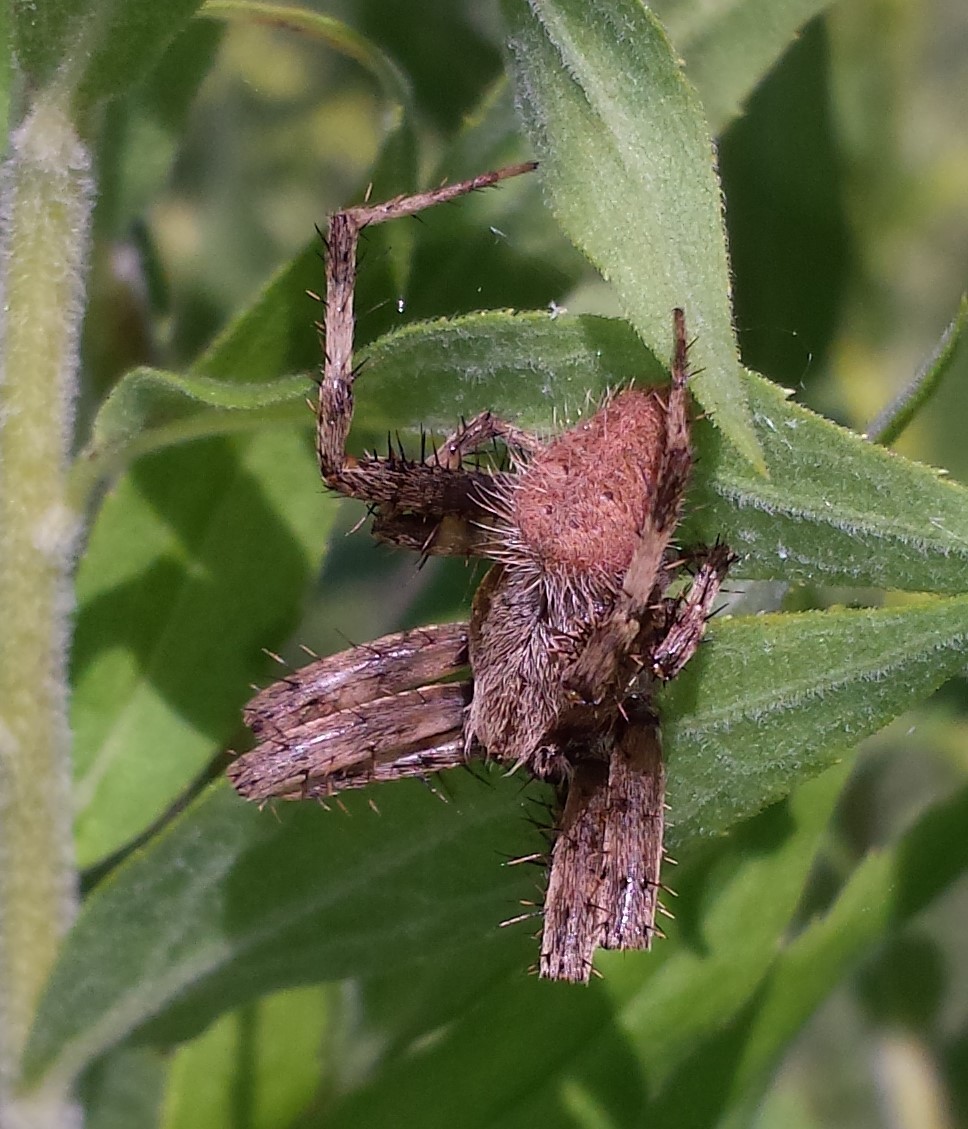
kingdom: Animalia
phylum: Arthropoda
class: Arachnida
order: Araneae
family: Araneidae
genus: Neoscona
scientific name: Neoscona crucifera
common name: Spotted orbweaver
